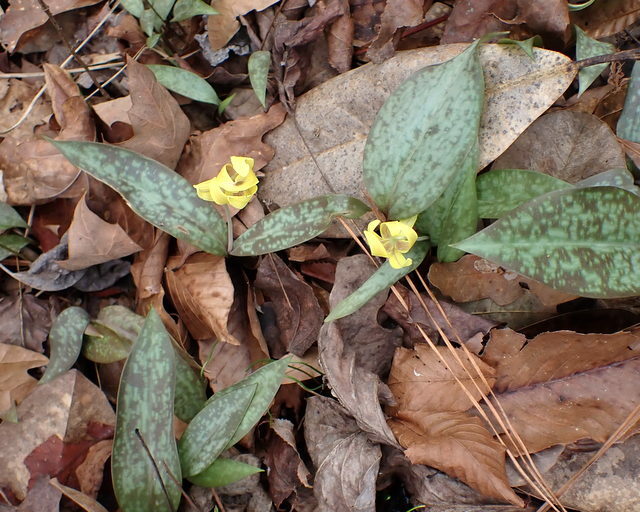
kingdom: Plantae
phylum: Tracheophyta
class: Liliopsida
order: Liliales
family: Liliaceae
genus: Erythronium
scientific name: Erythronium umbilicatum
